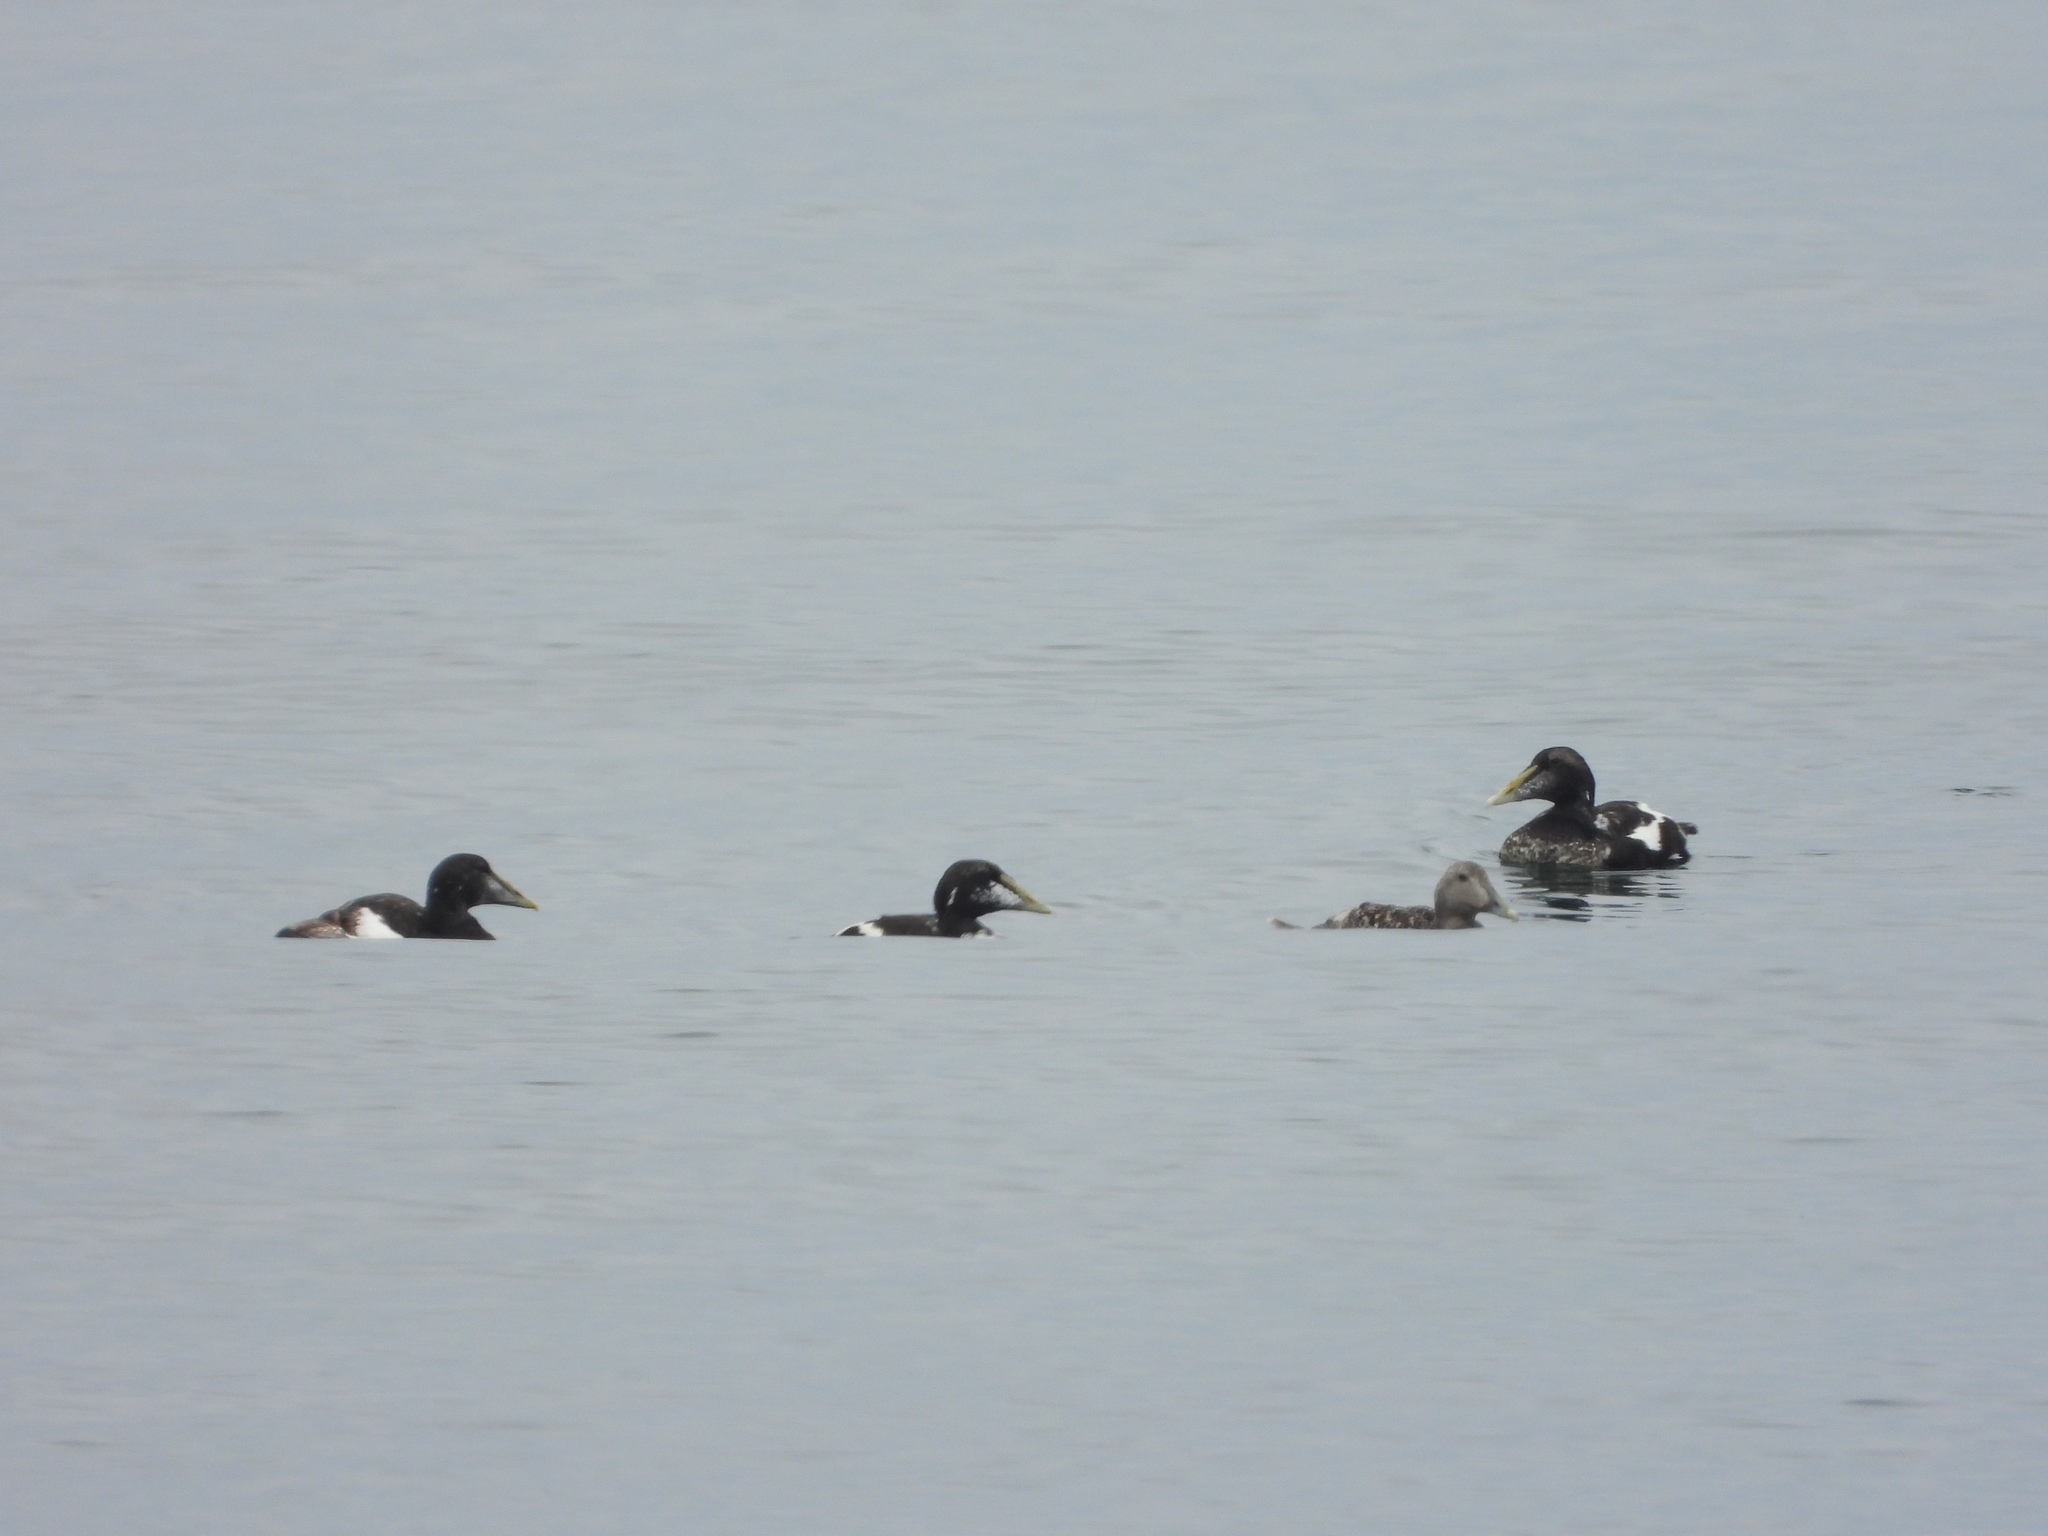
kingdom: Animalia
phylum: Chordata
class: Aves
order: Anseriformes
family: Anatidae
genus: Somateria
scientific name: Somateria mollissima
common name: Common eider
